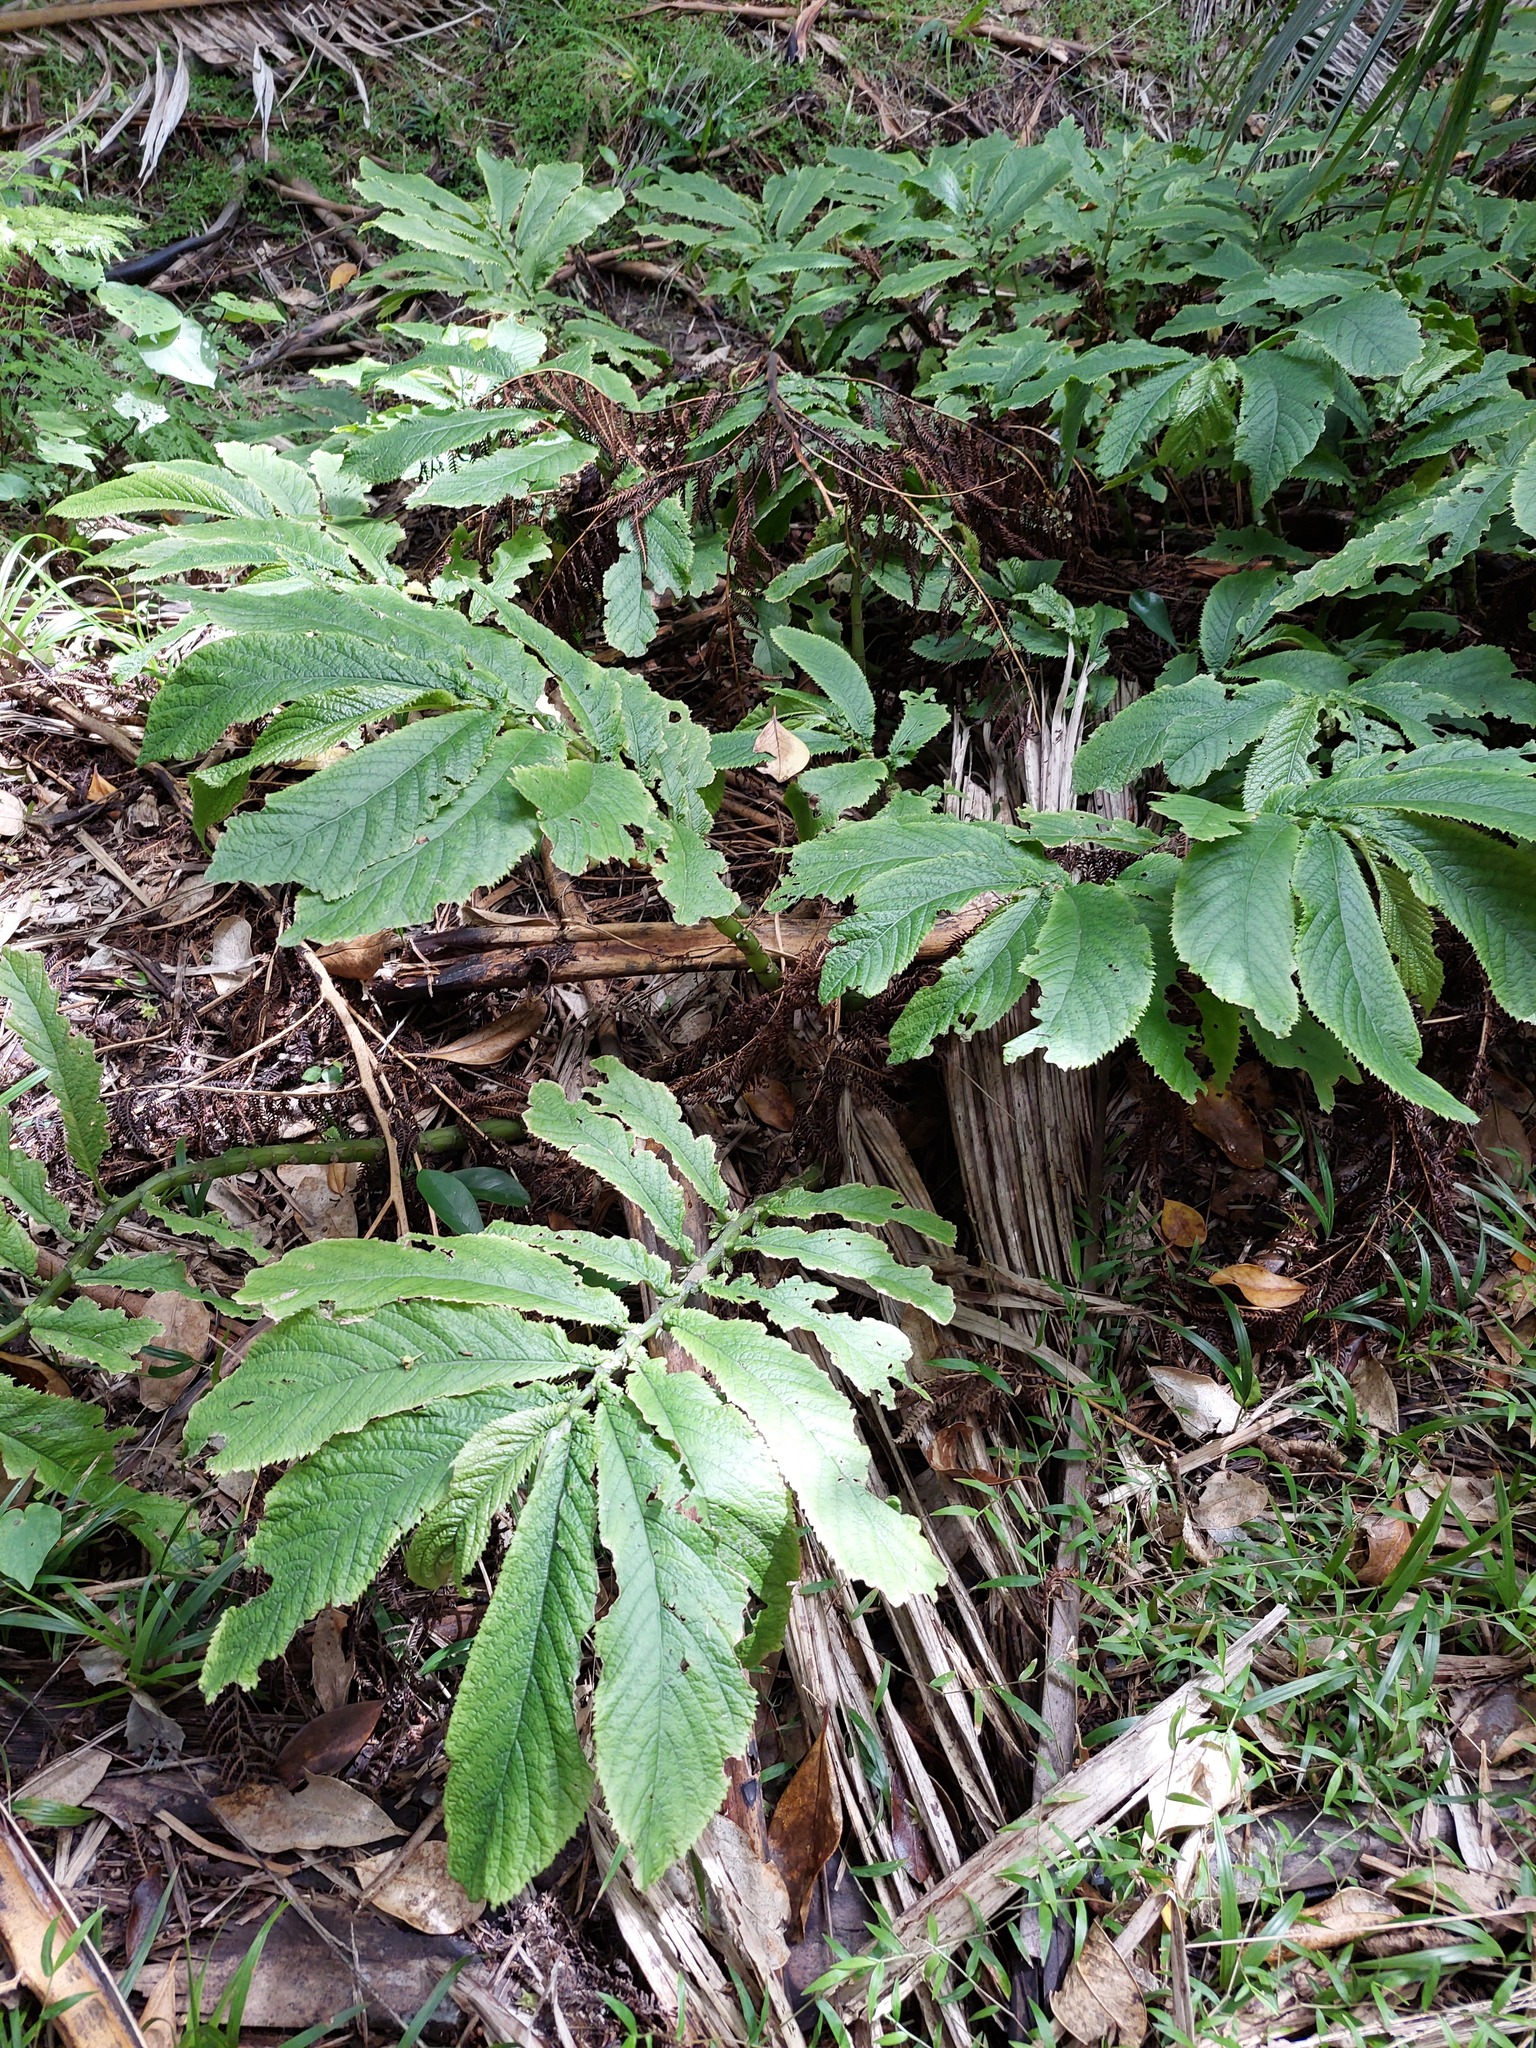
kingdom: Plantae
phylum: Tracheophyta
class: Magnoliopsida
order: Rosales
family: Urticaceae
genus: Elatostema
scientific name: Elatostema rugosum
